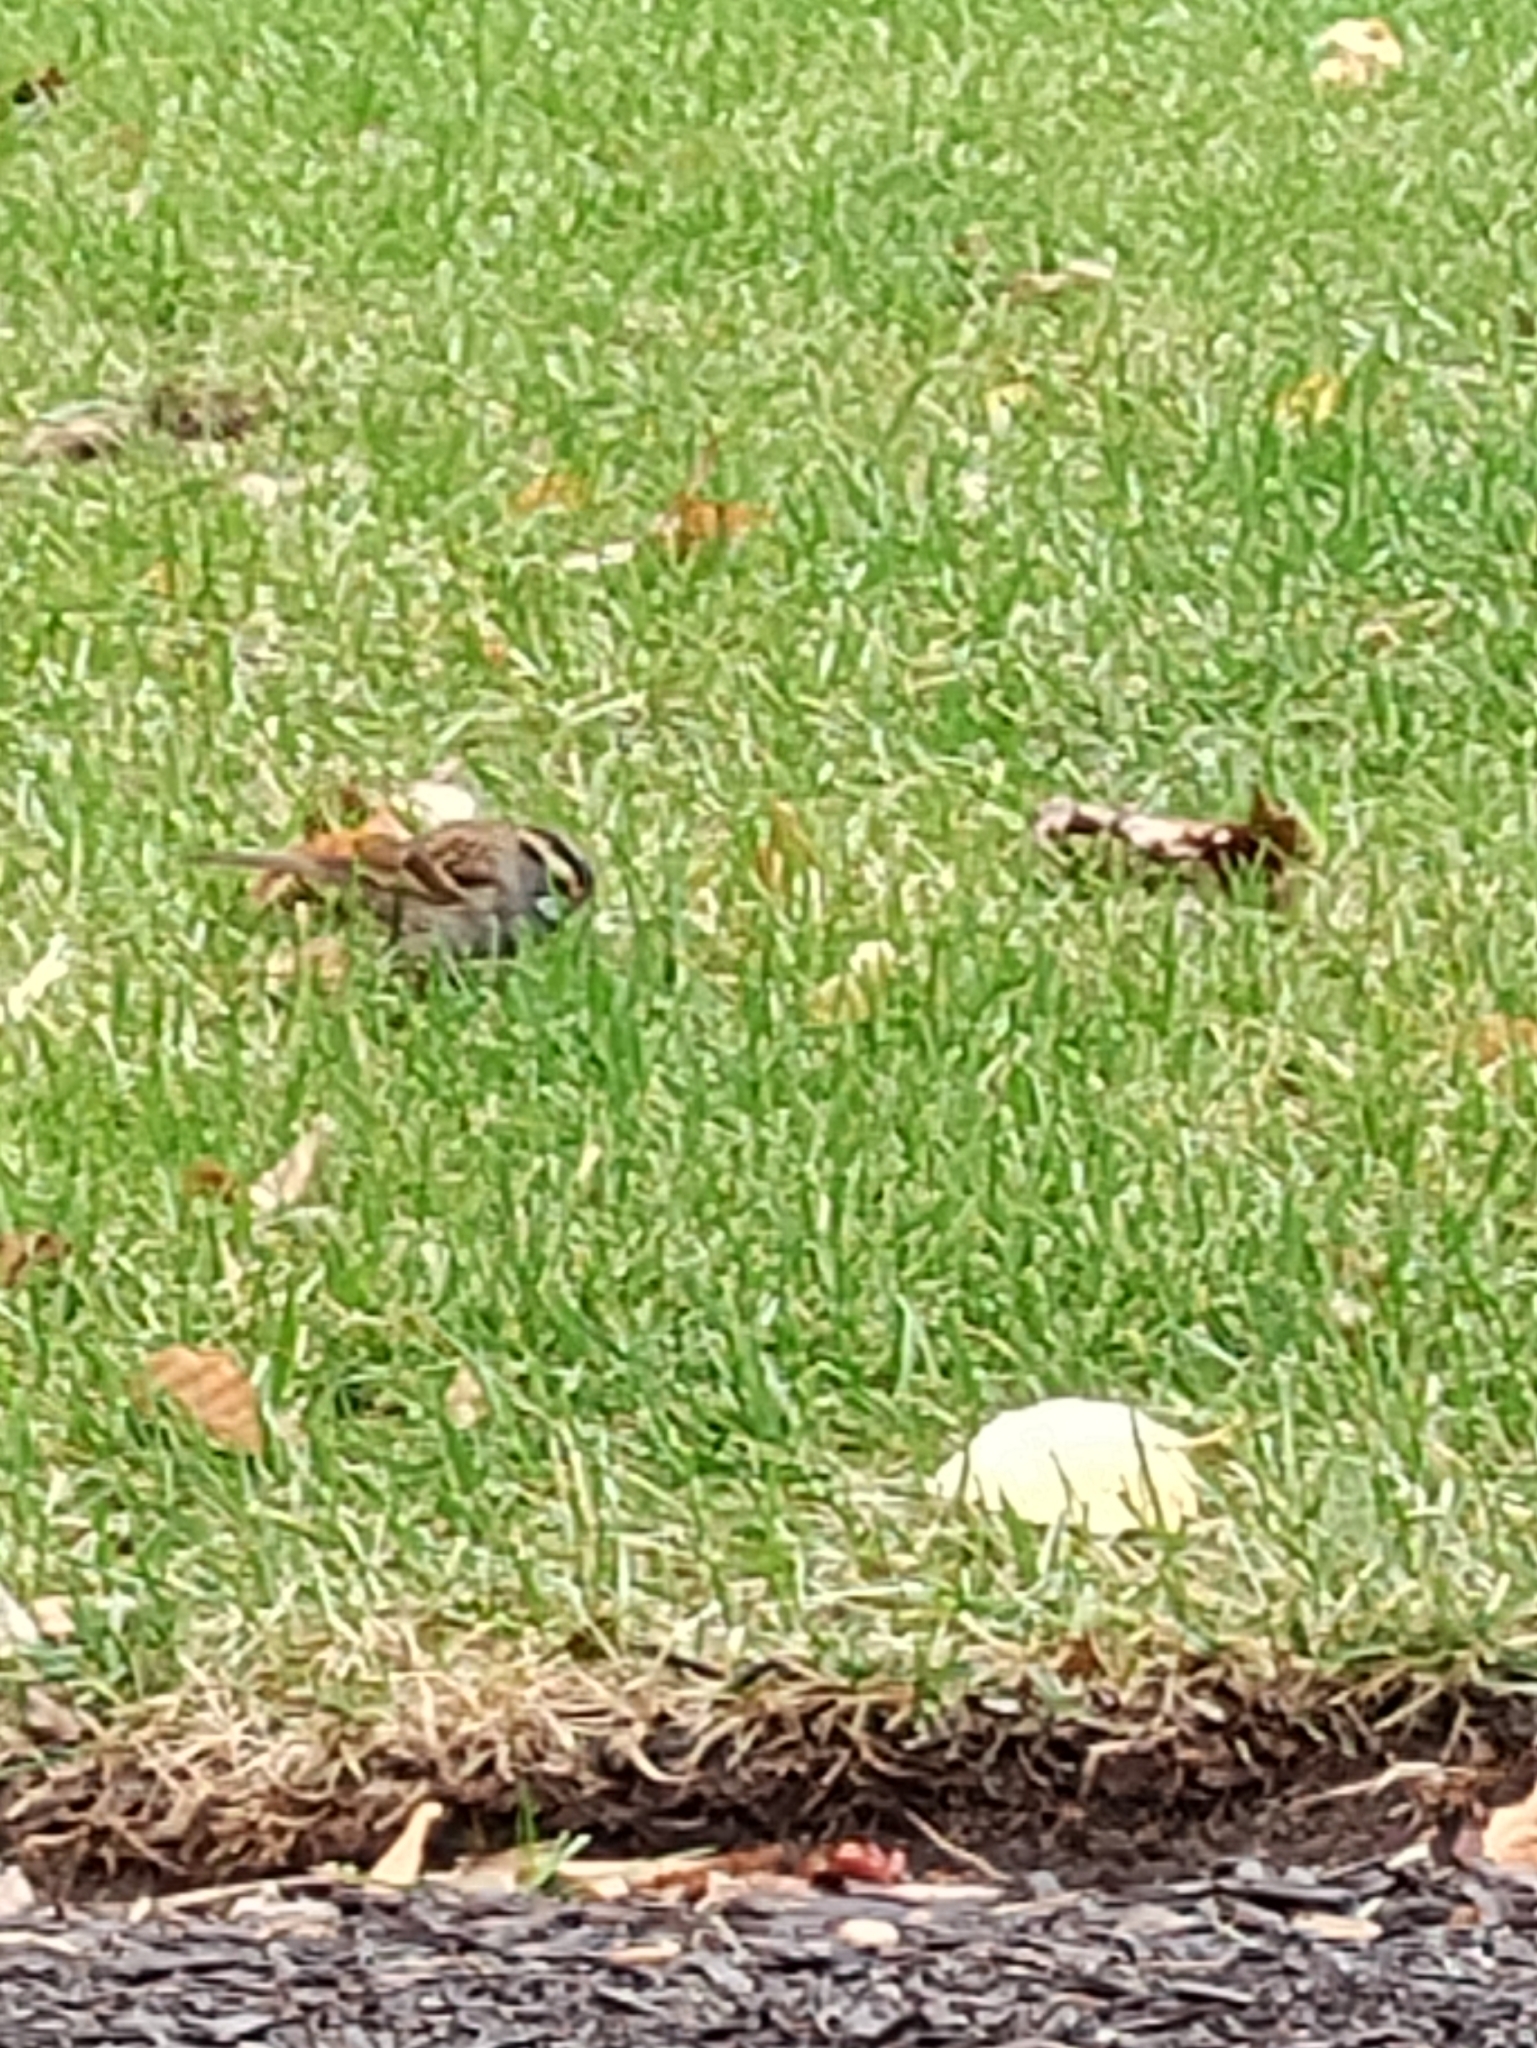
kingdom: Animalia
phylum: Chordata
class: Aves
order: Passeriformes
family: Passerellidae
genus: Zonotrichia
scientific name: Zonotrichia albicollis
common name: White-throated sparrow
